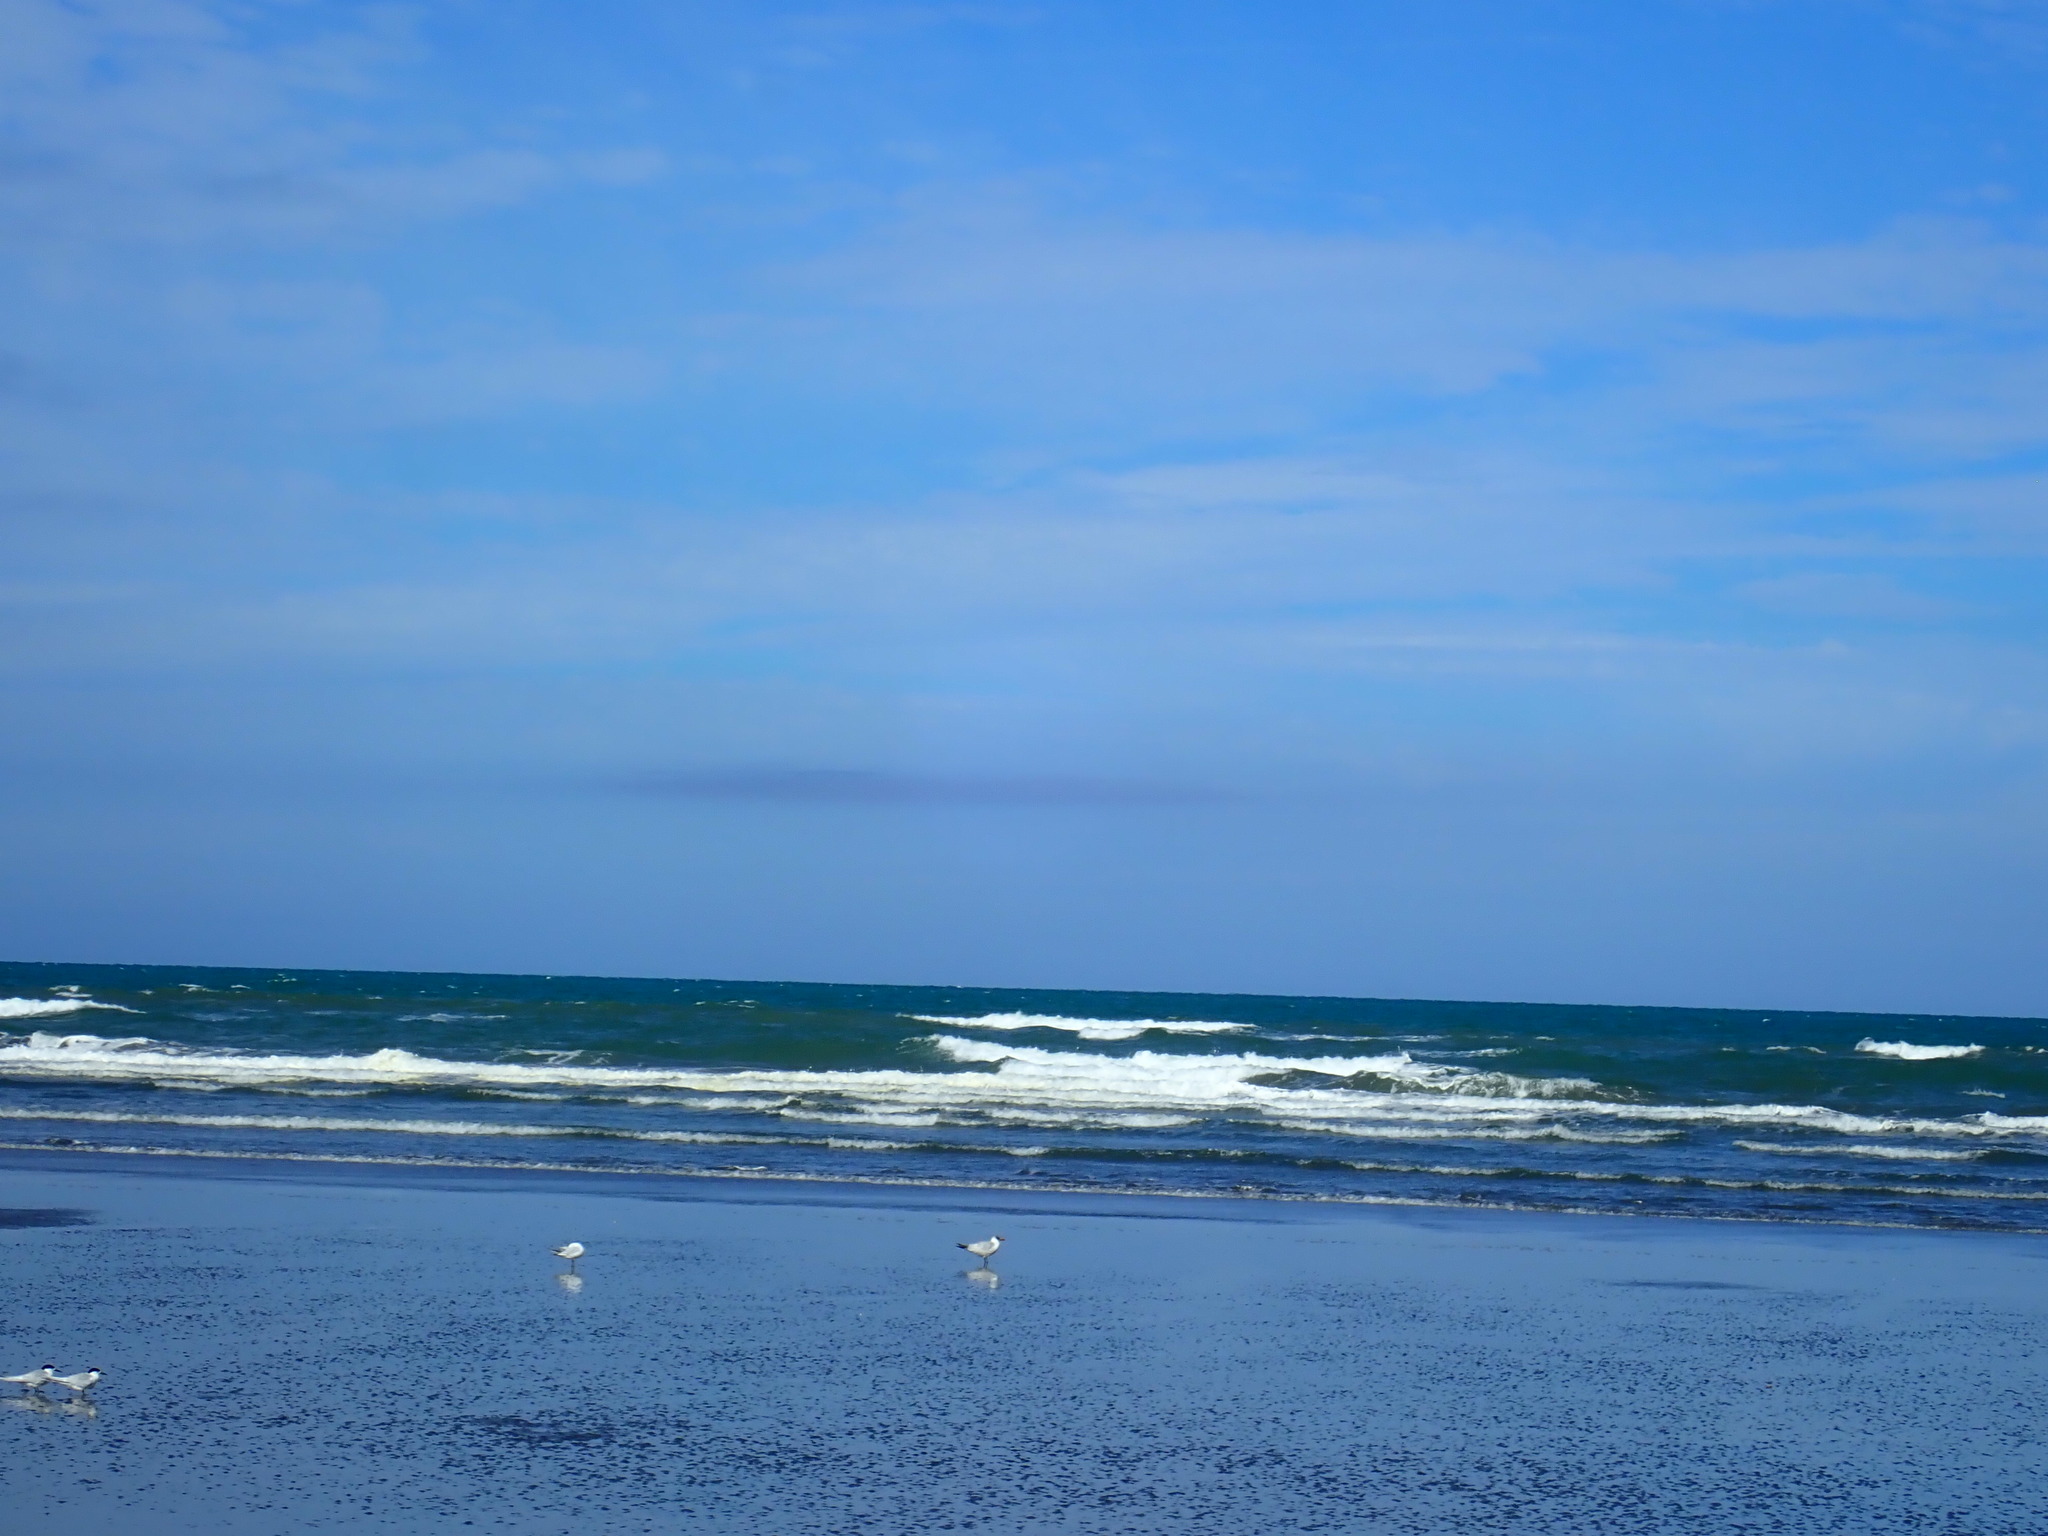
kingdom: Animalia
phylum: Chordata
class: Aves
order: Charadriiformes
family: Laridae
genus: Hydroprogne
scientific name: Hydroprogne caspia
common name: Caspian tern
